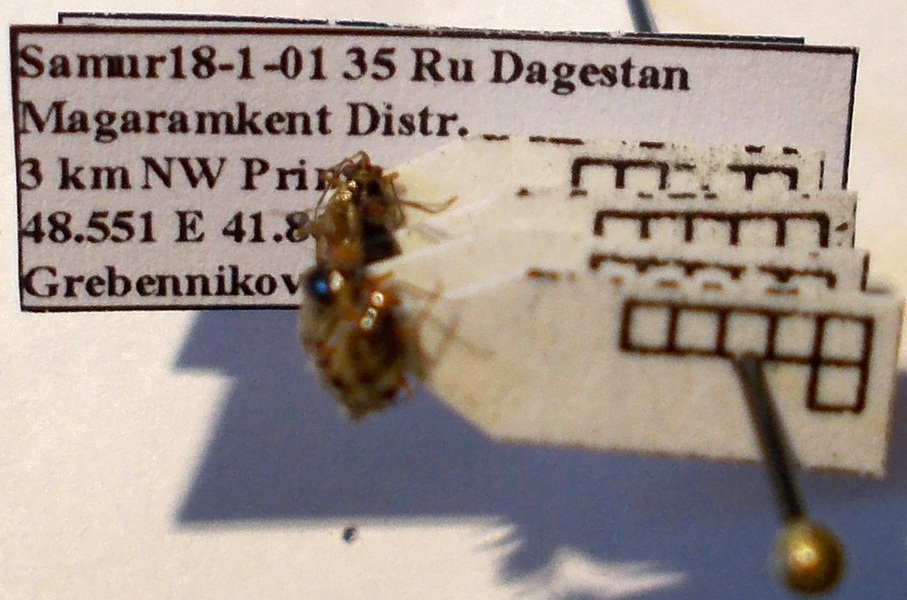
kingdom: Animalia
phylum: Arthropoda
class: Insecta
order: Hemiptera
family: Miridae
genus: Deraeocoris
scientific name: Deraeocoris serenus
